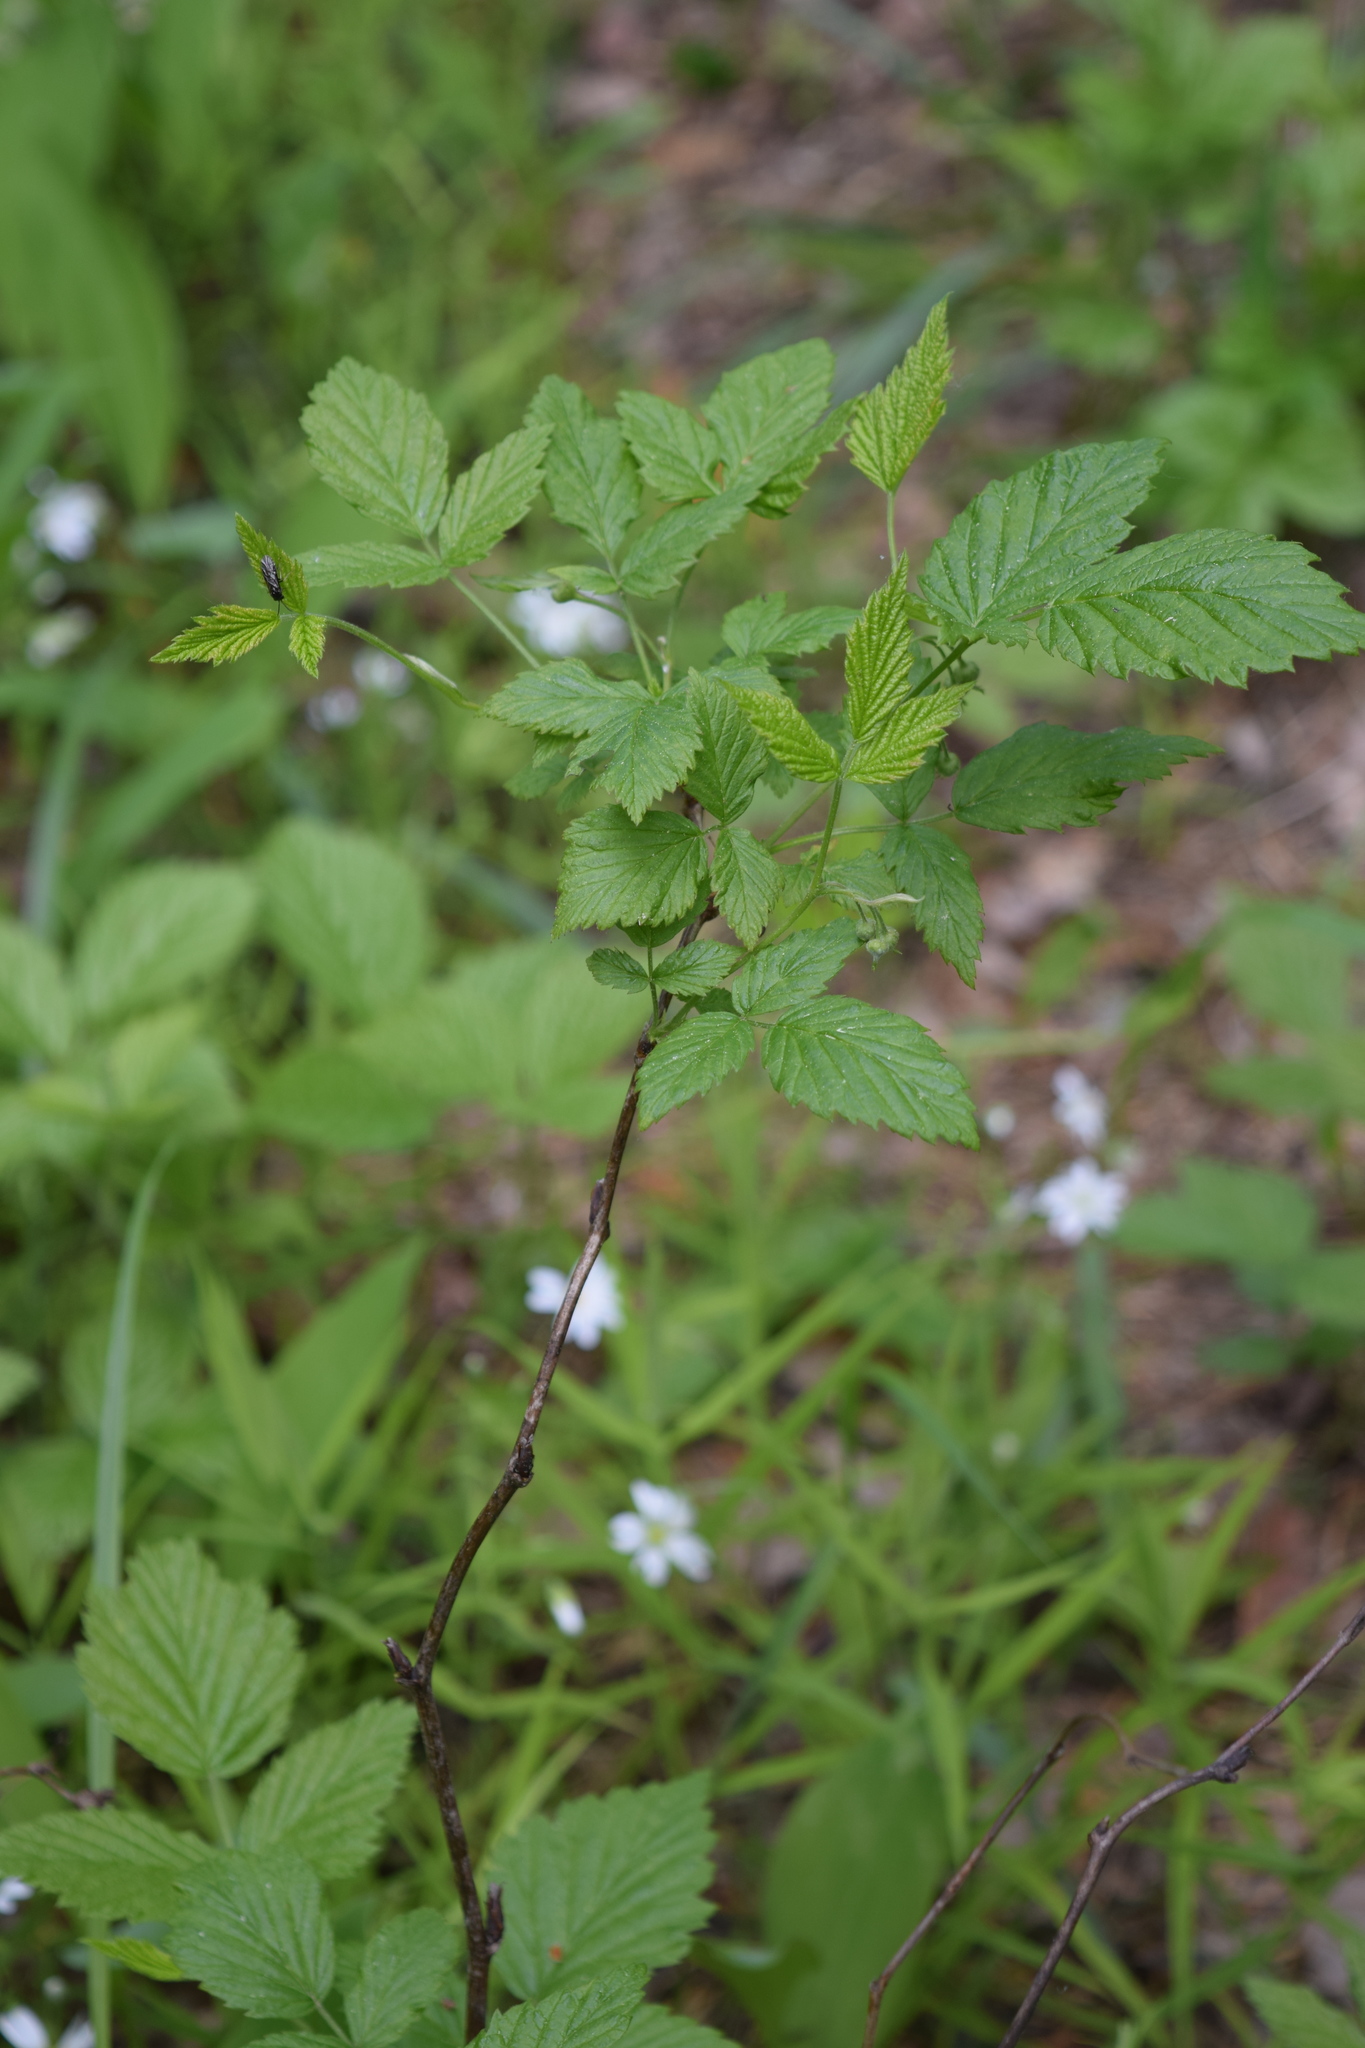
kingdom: Plantae
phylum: Tracheophyta
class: Magnoliopsida
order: Rosales
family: Rosaceae
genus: Rubus
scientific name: Rubus idaeus
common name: Raspberry
